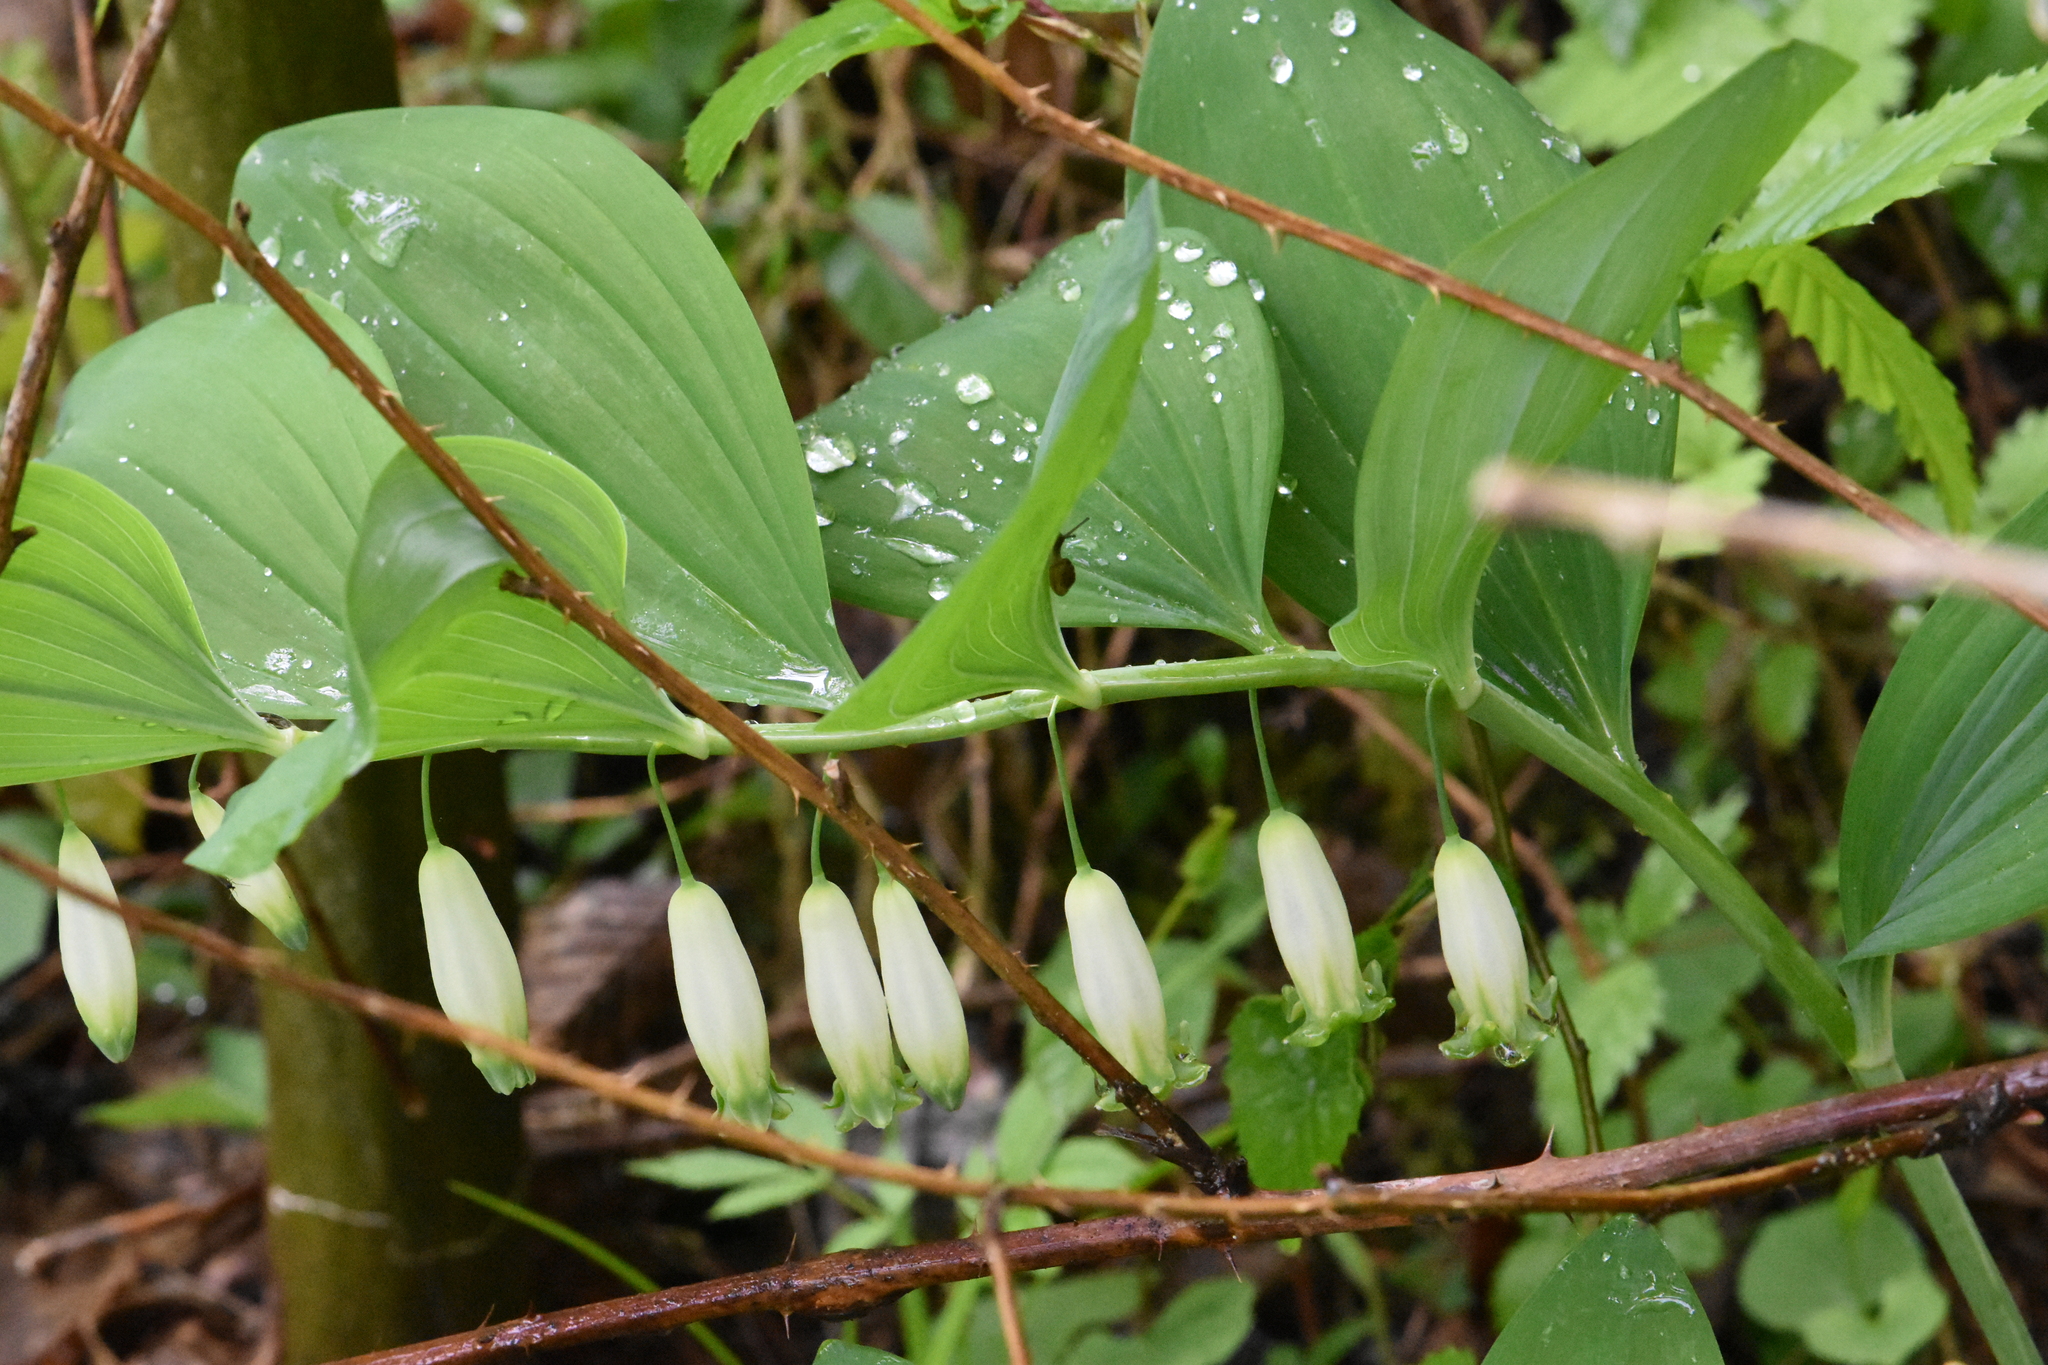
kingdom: Plantae
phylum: Tracheophyta
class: Liliopsida
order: Asparagales
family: Asparagaceae
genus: Polygonatum
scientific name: Polygonatum odoratum
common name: Angular solomon's-seal
